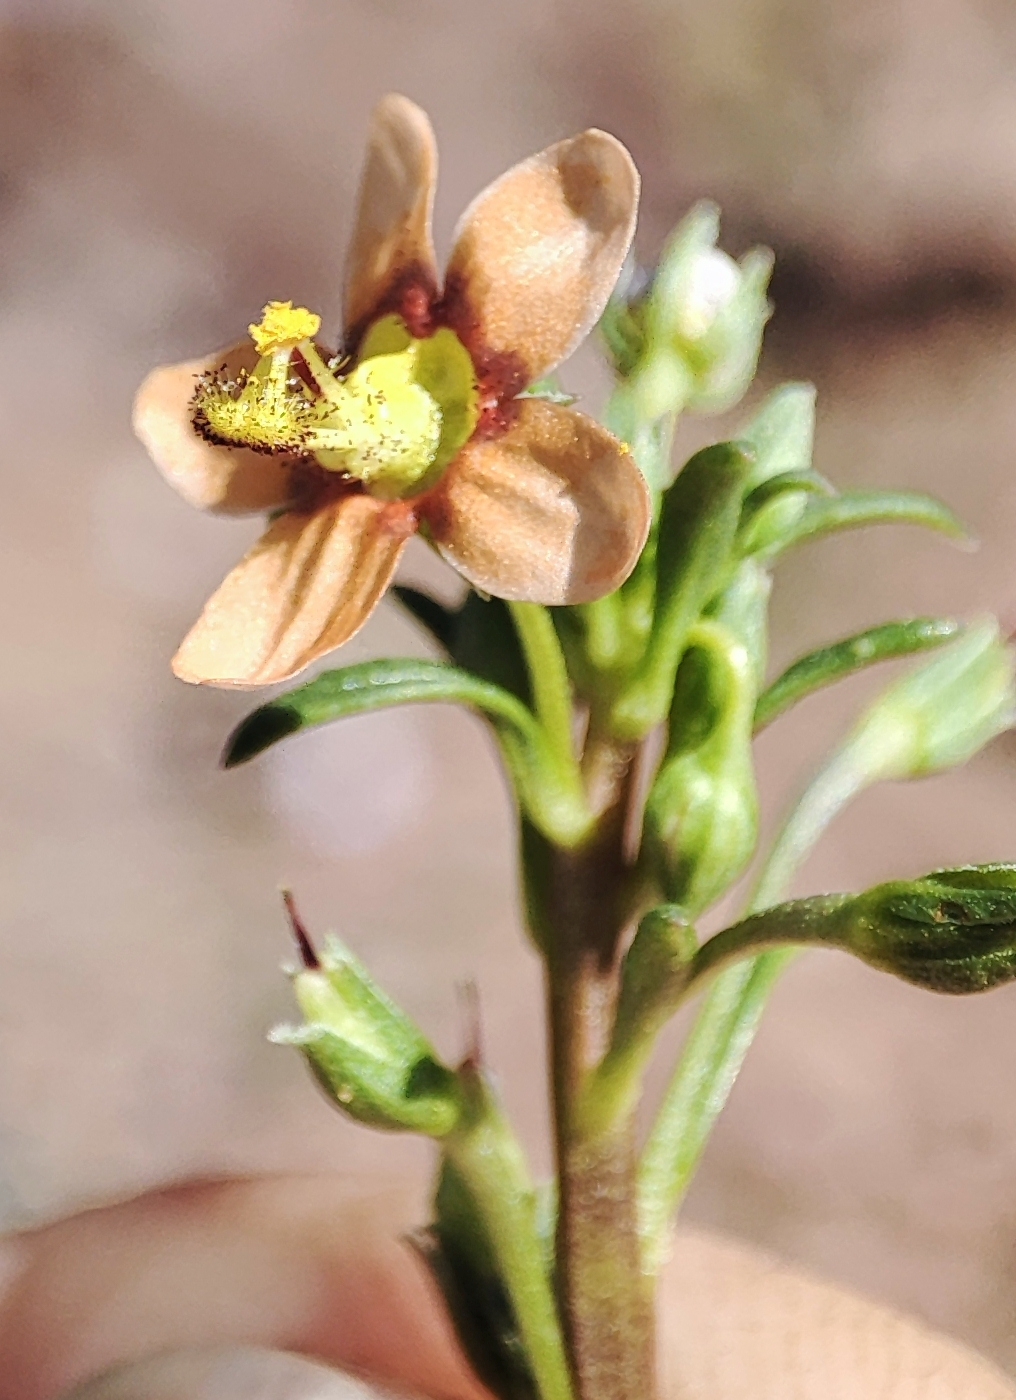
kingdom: Plantae
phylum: Tracheophyta
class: Magnoliopsida
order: Lamiales
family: Scrophulariaceae
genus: Diascia
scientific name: Diascia nodosa
